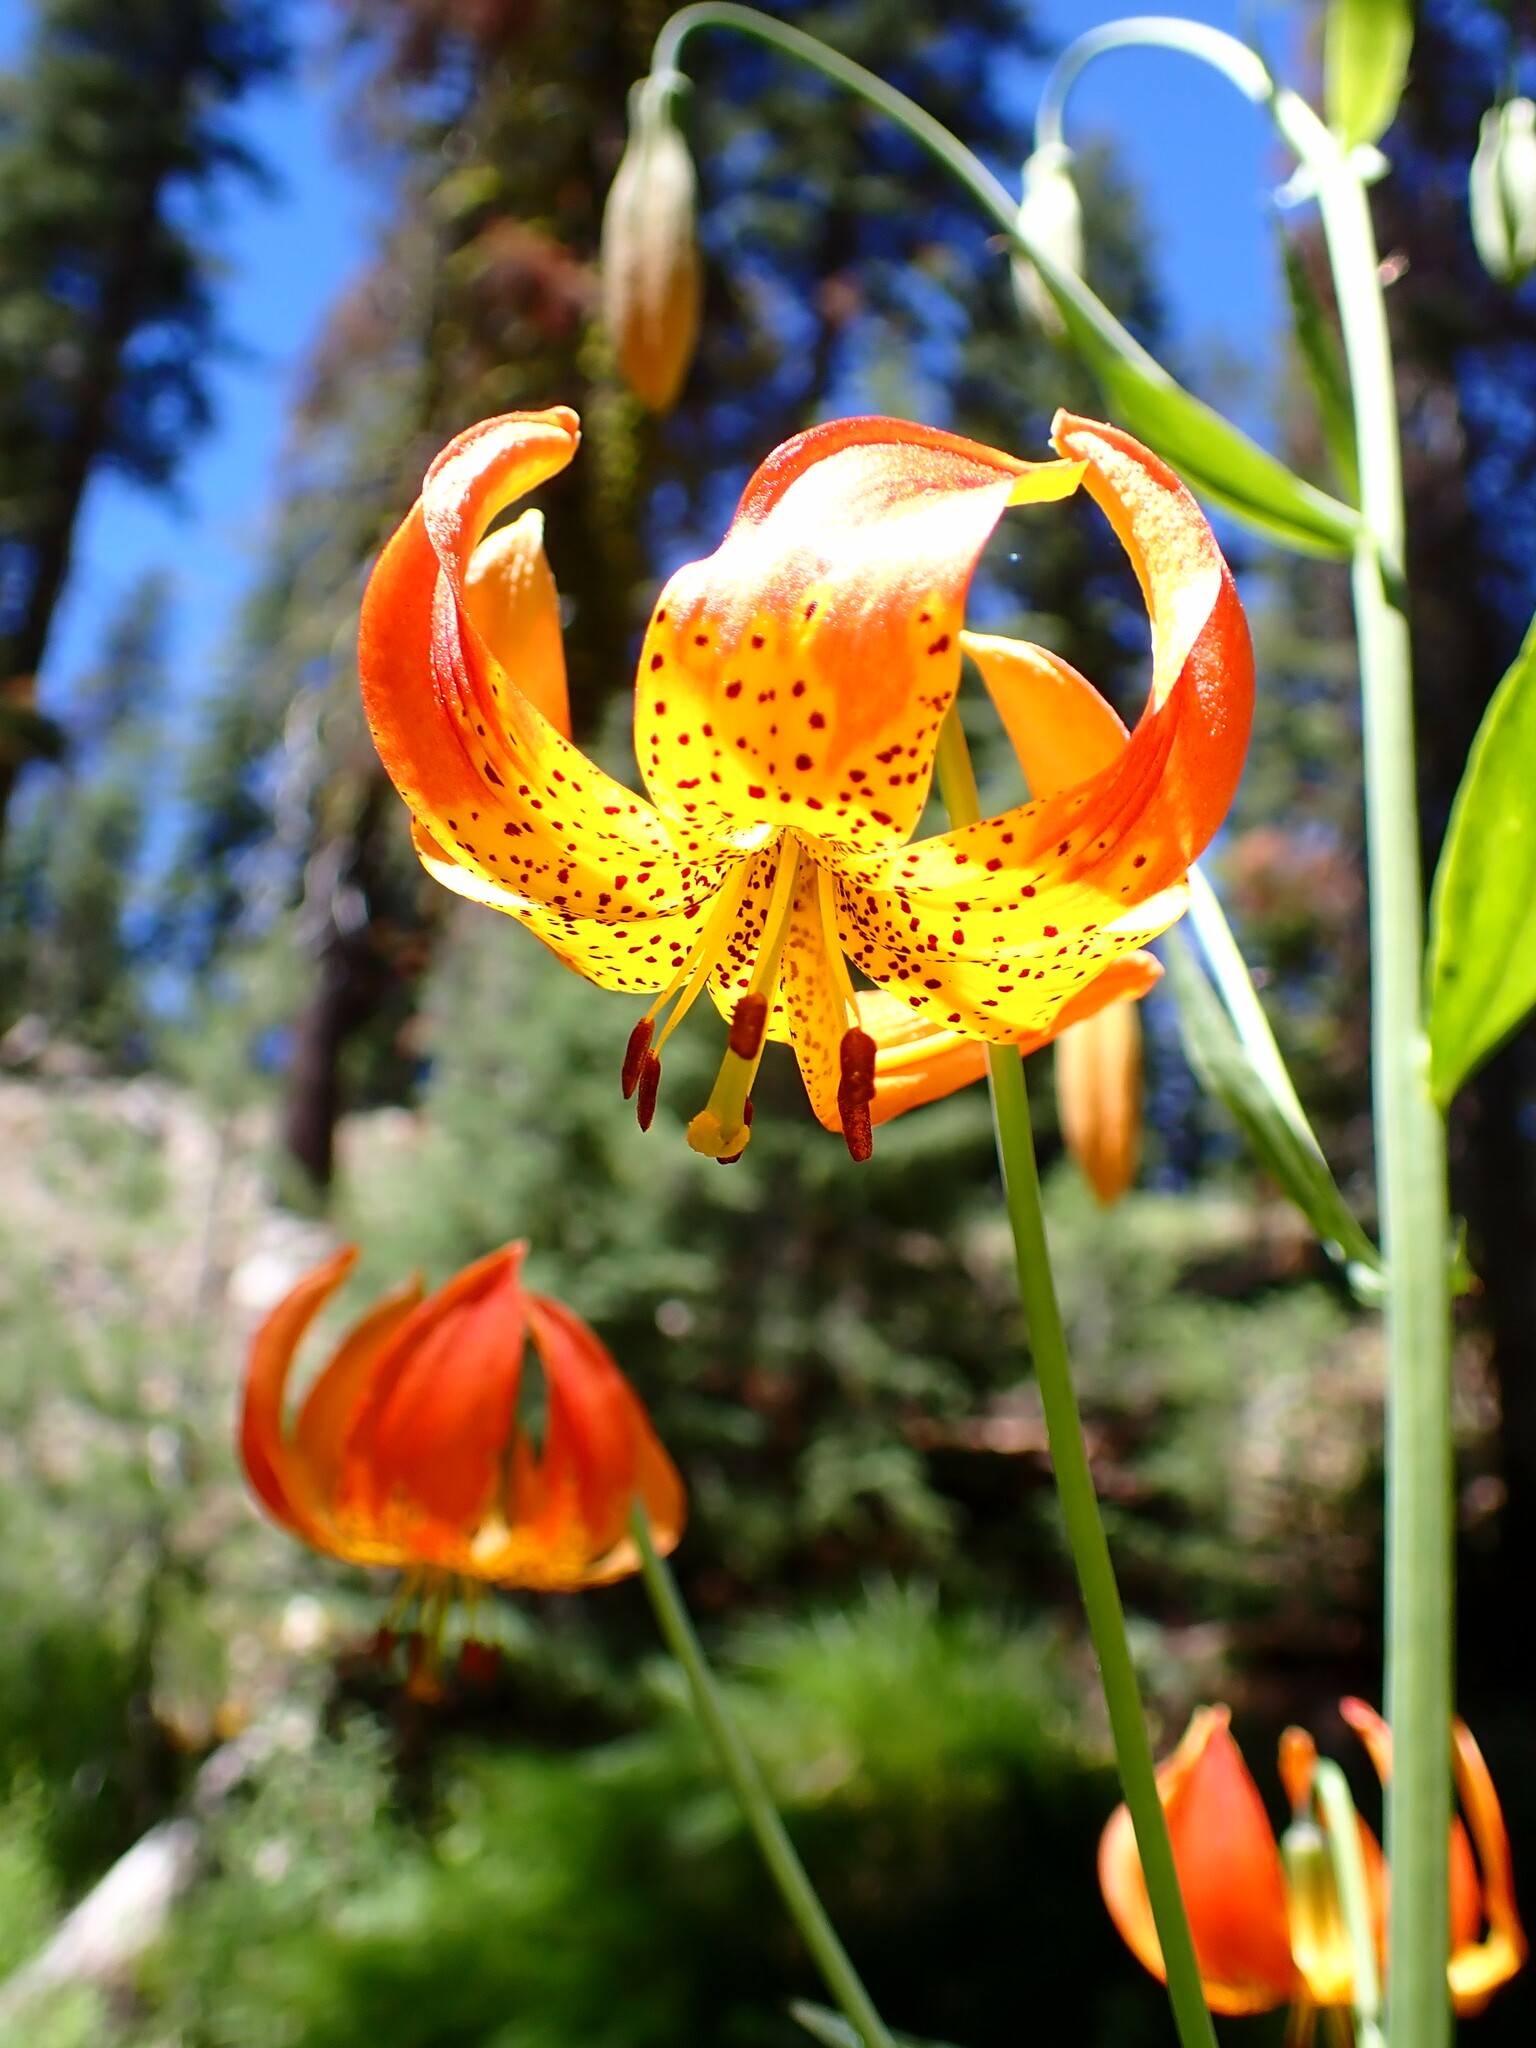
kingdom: Plantae
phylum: Tracheophyta
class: Liliopsida
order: Liliales
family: Liliaceae
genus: Lilium
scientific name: Lilium pardalinum
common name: Panther lily
